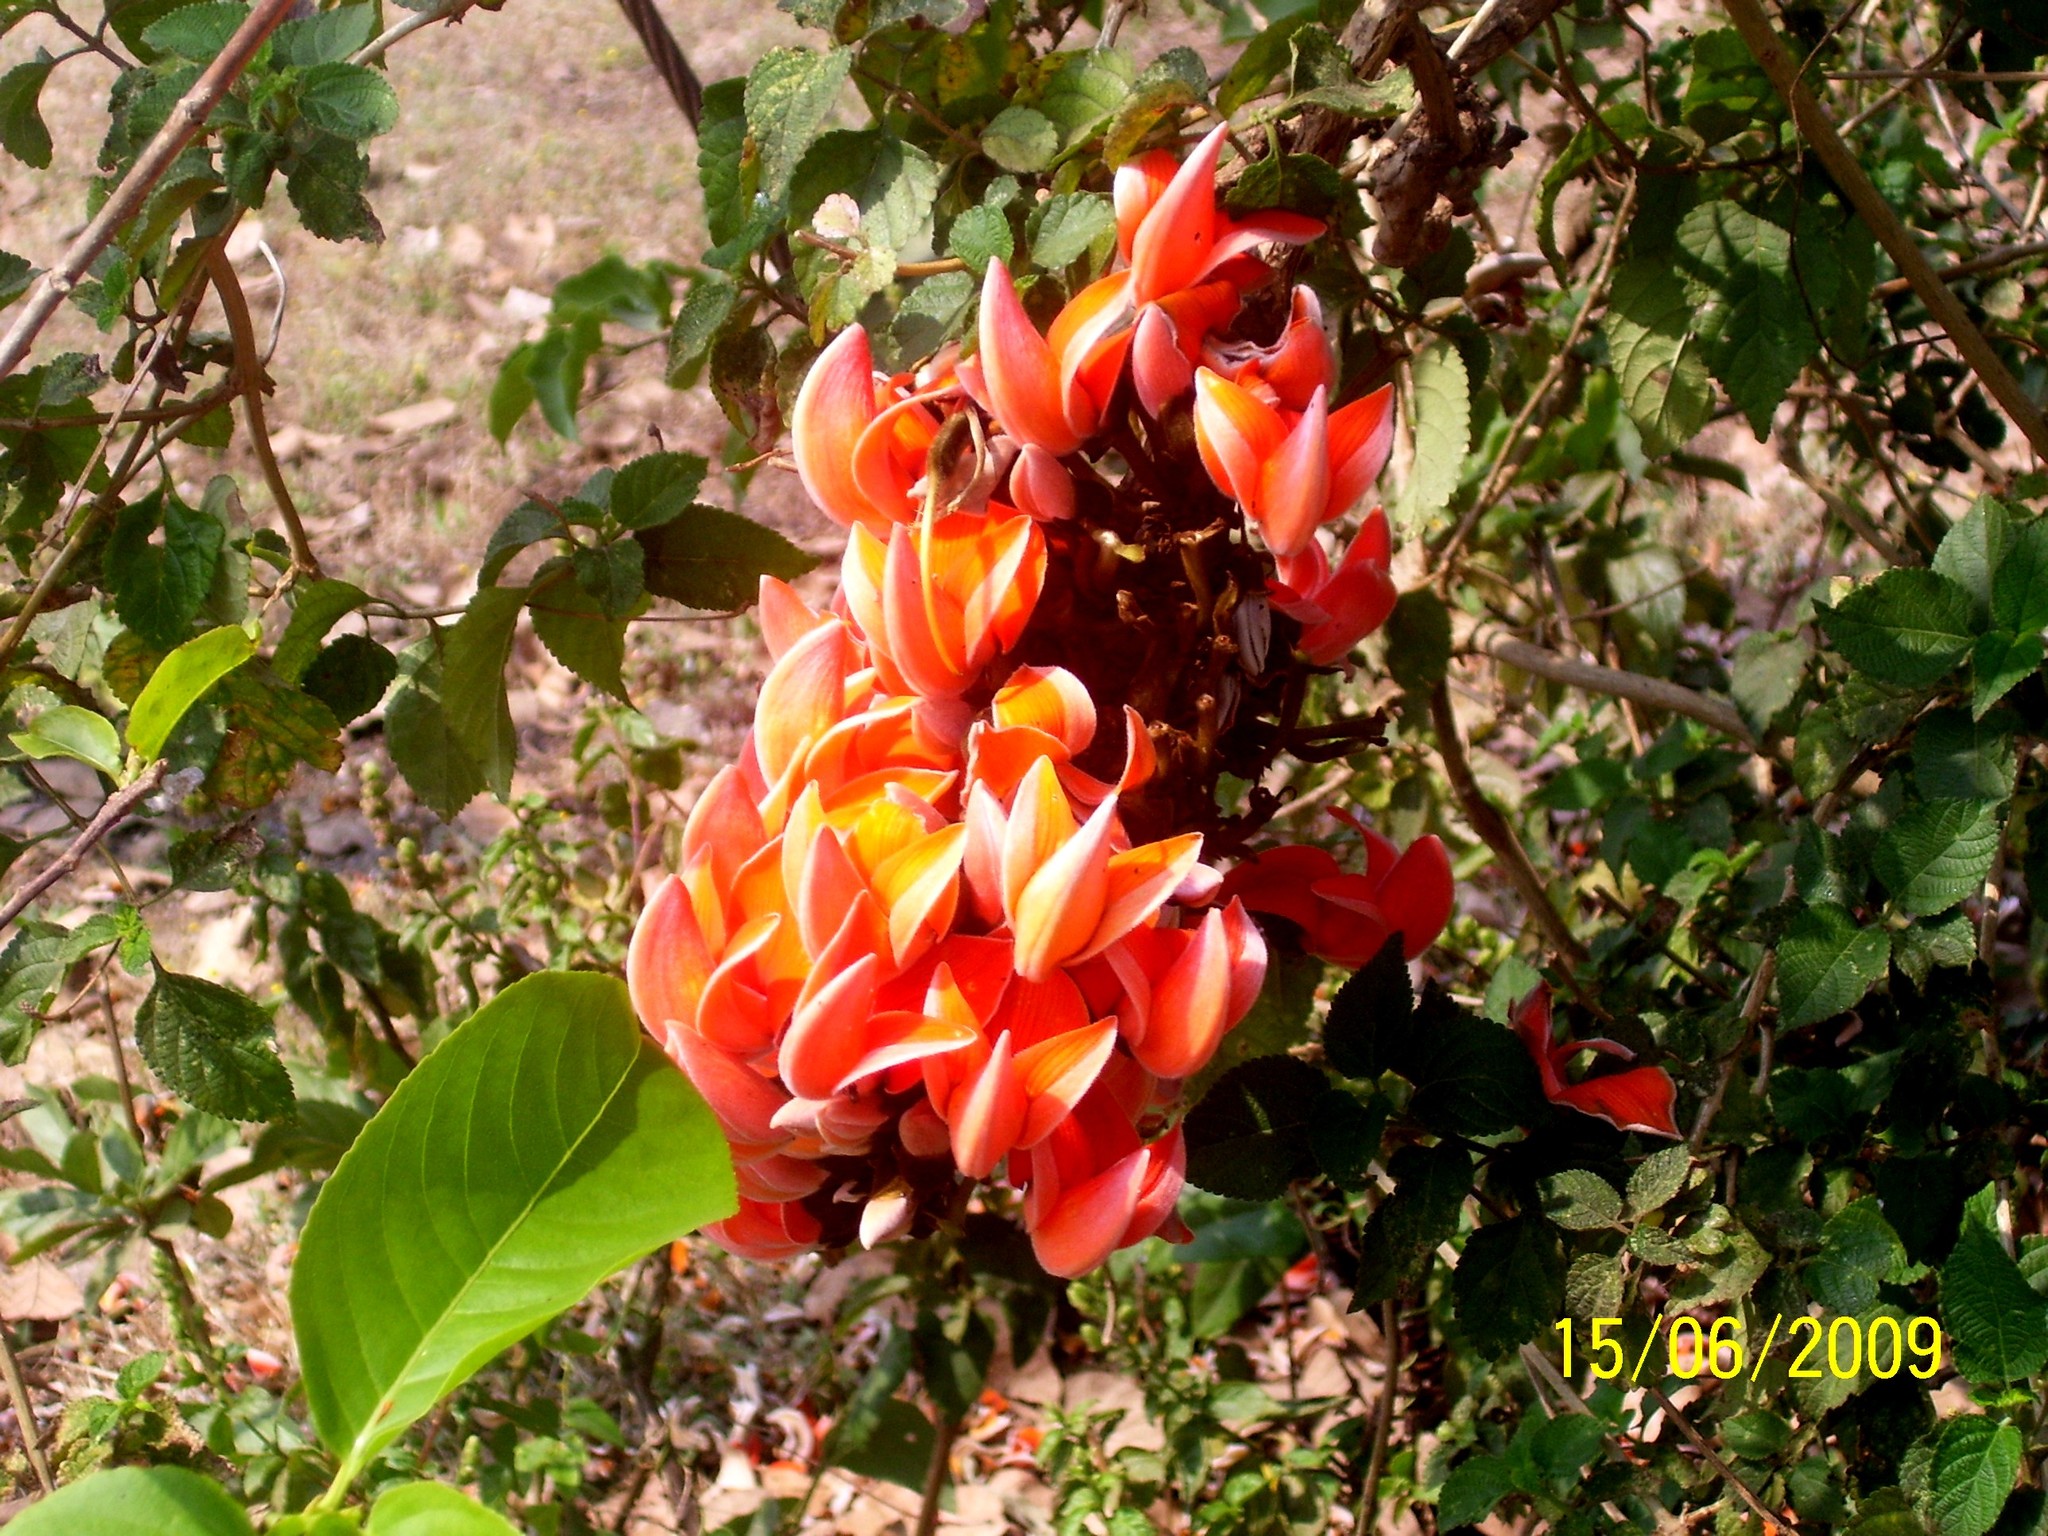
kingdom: Plantae
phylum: Tracheophyta
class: Magnoliopsida
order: Fabales
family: Fabaceae
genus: Butea
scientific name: Butea monosperma
